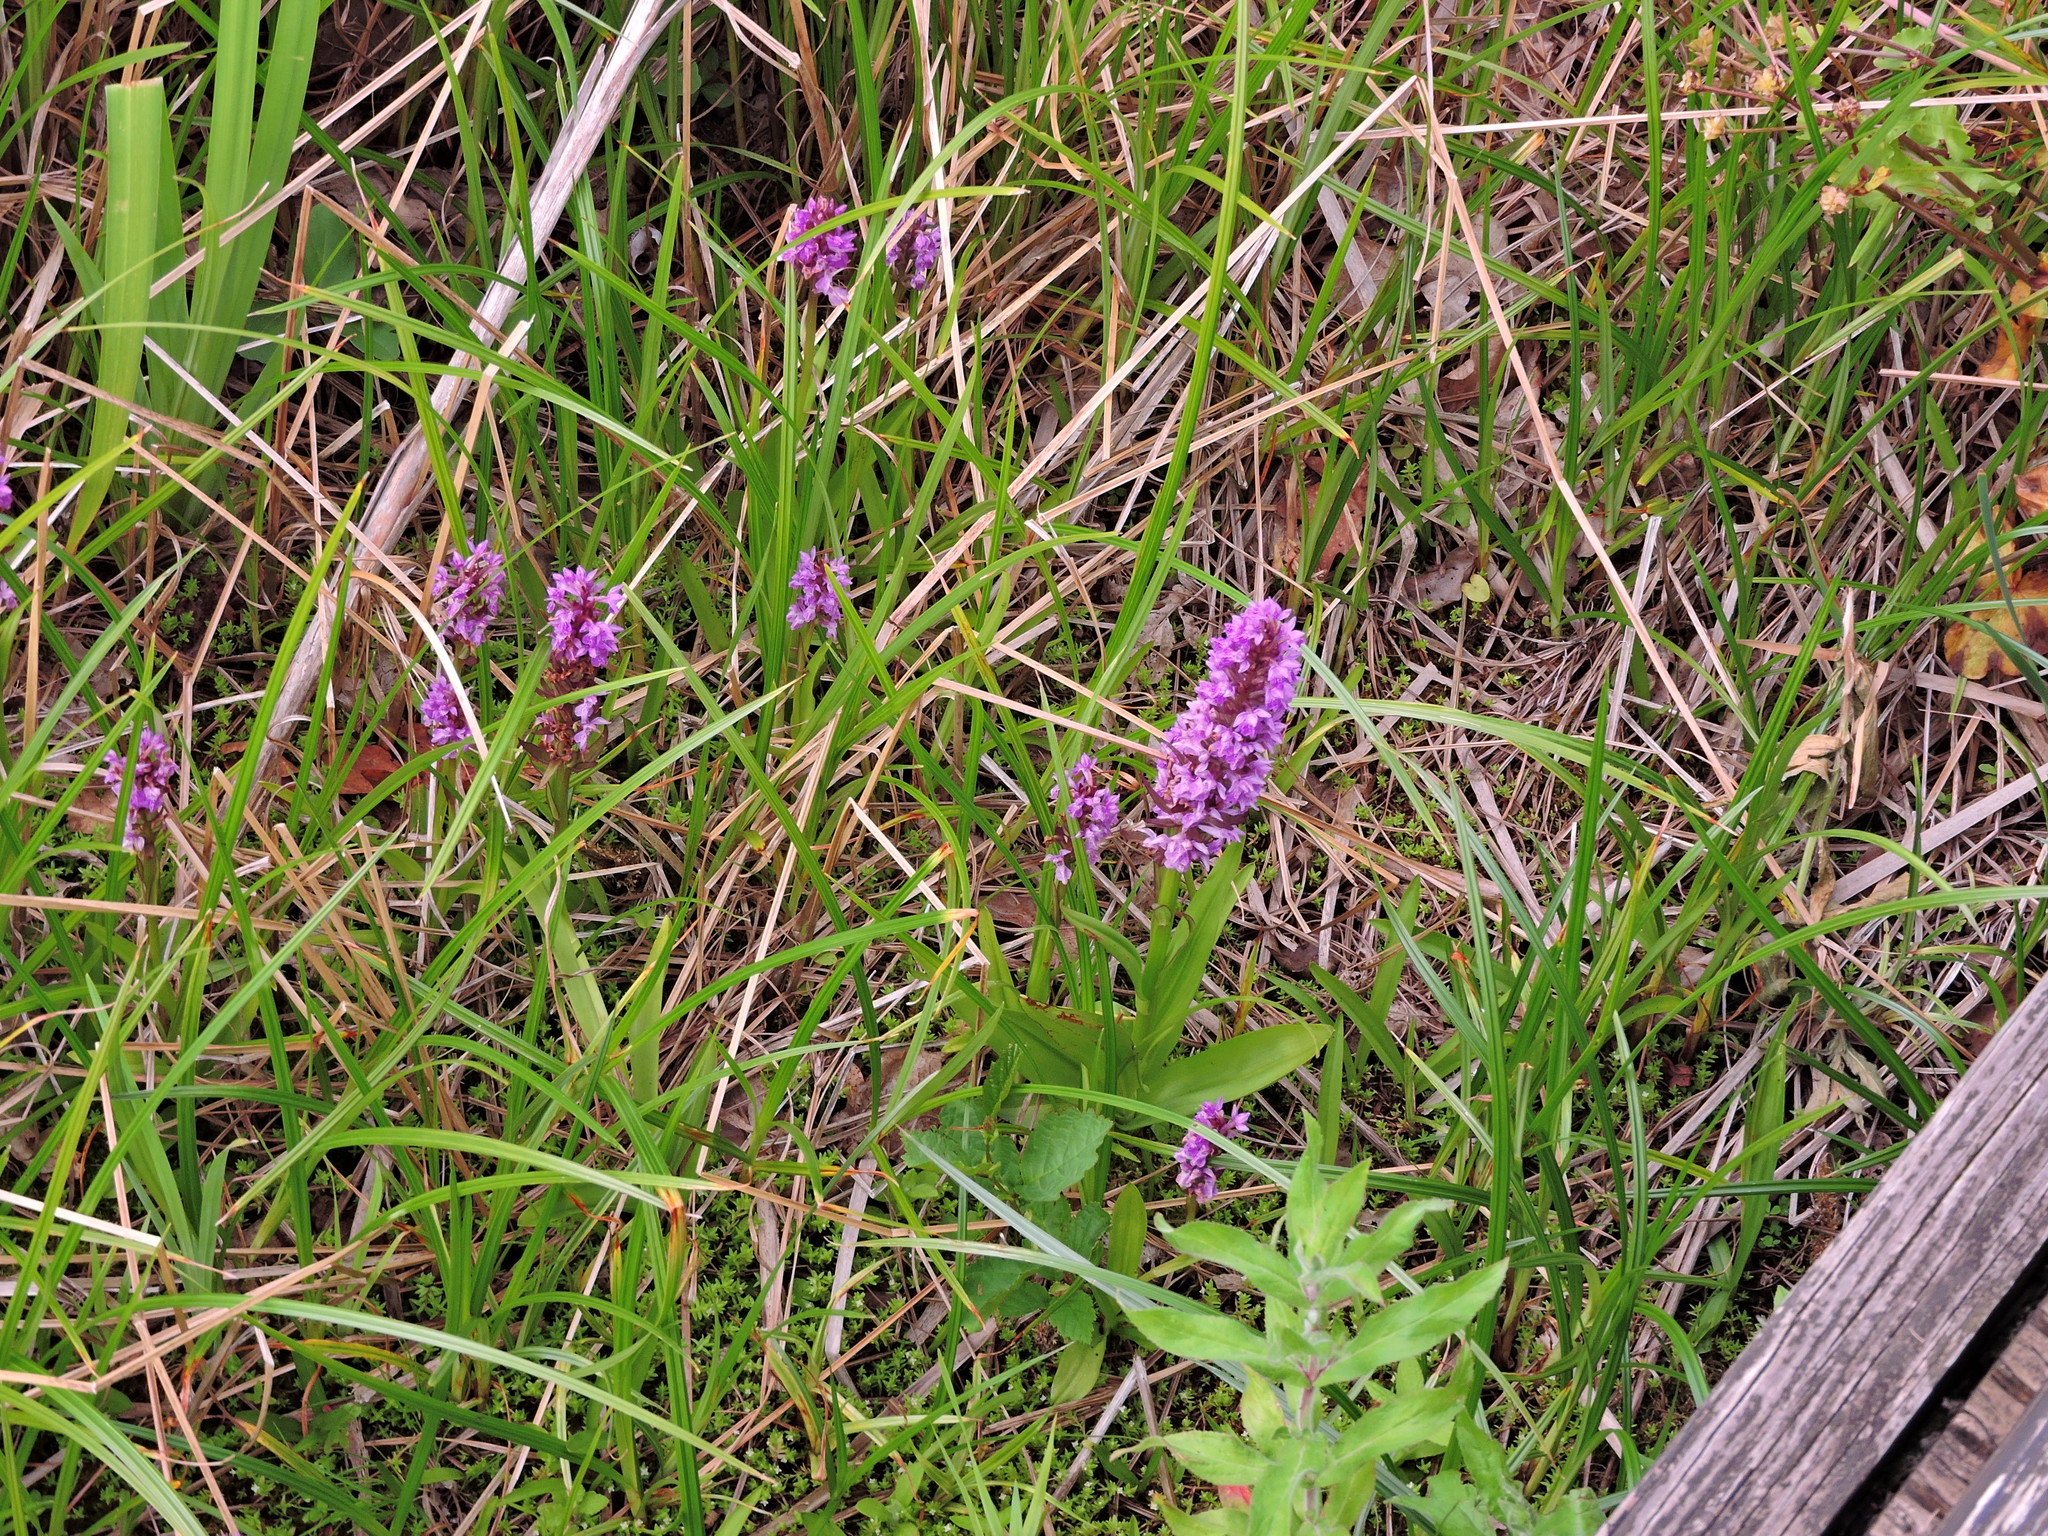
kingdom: Plantae
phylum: Tracheophyta
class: Liliopsida
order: Asparagales
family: Orchidaceae
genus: Dactylorhiza
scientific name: Dactylorhiza majalis
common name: Marsh orchid
